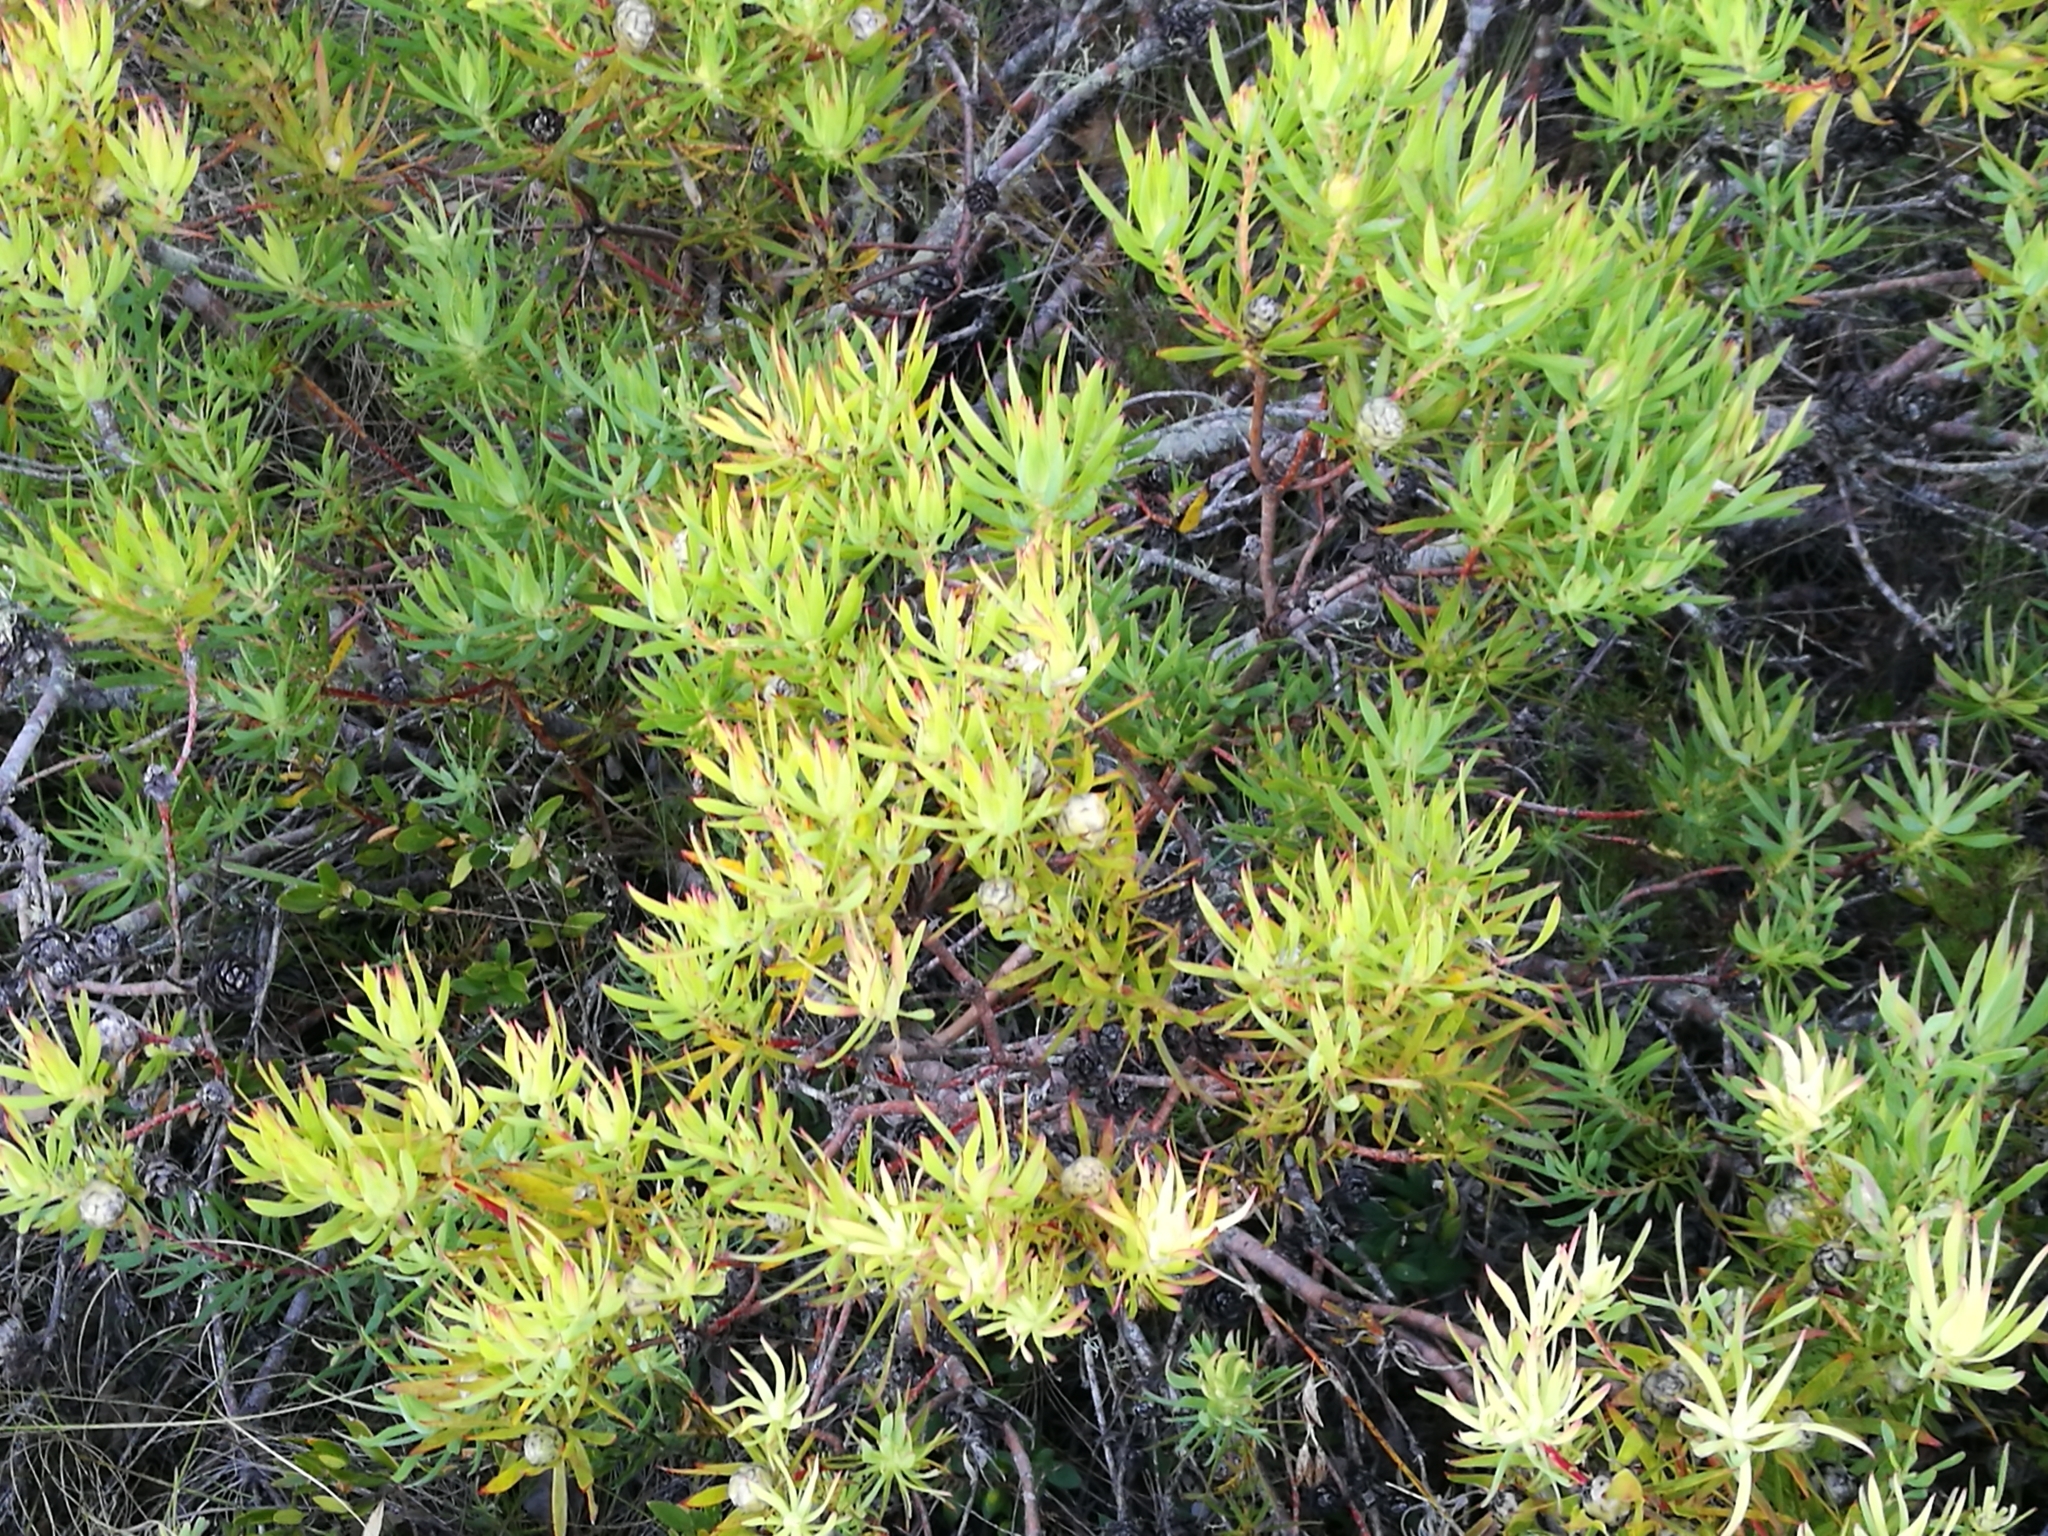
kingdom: Plantae
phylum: Tracheophyta
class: Magnoliopsida
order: Proteales
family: Proteaceae
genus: Leucadendron
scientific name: Leucadendron salignum
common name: Common sunshine conebush
